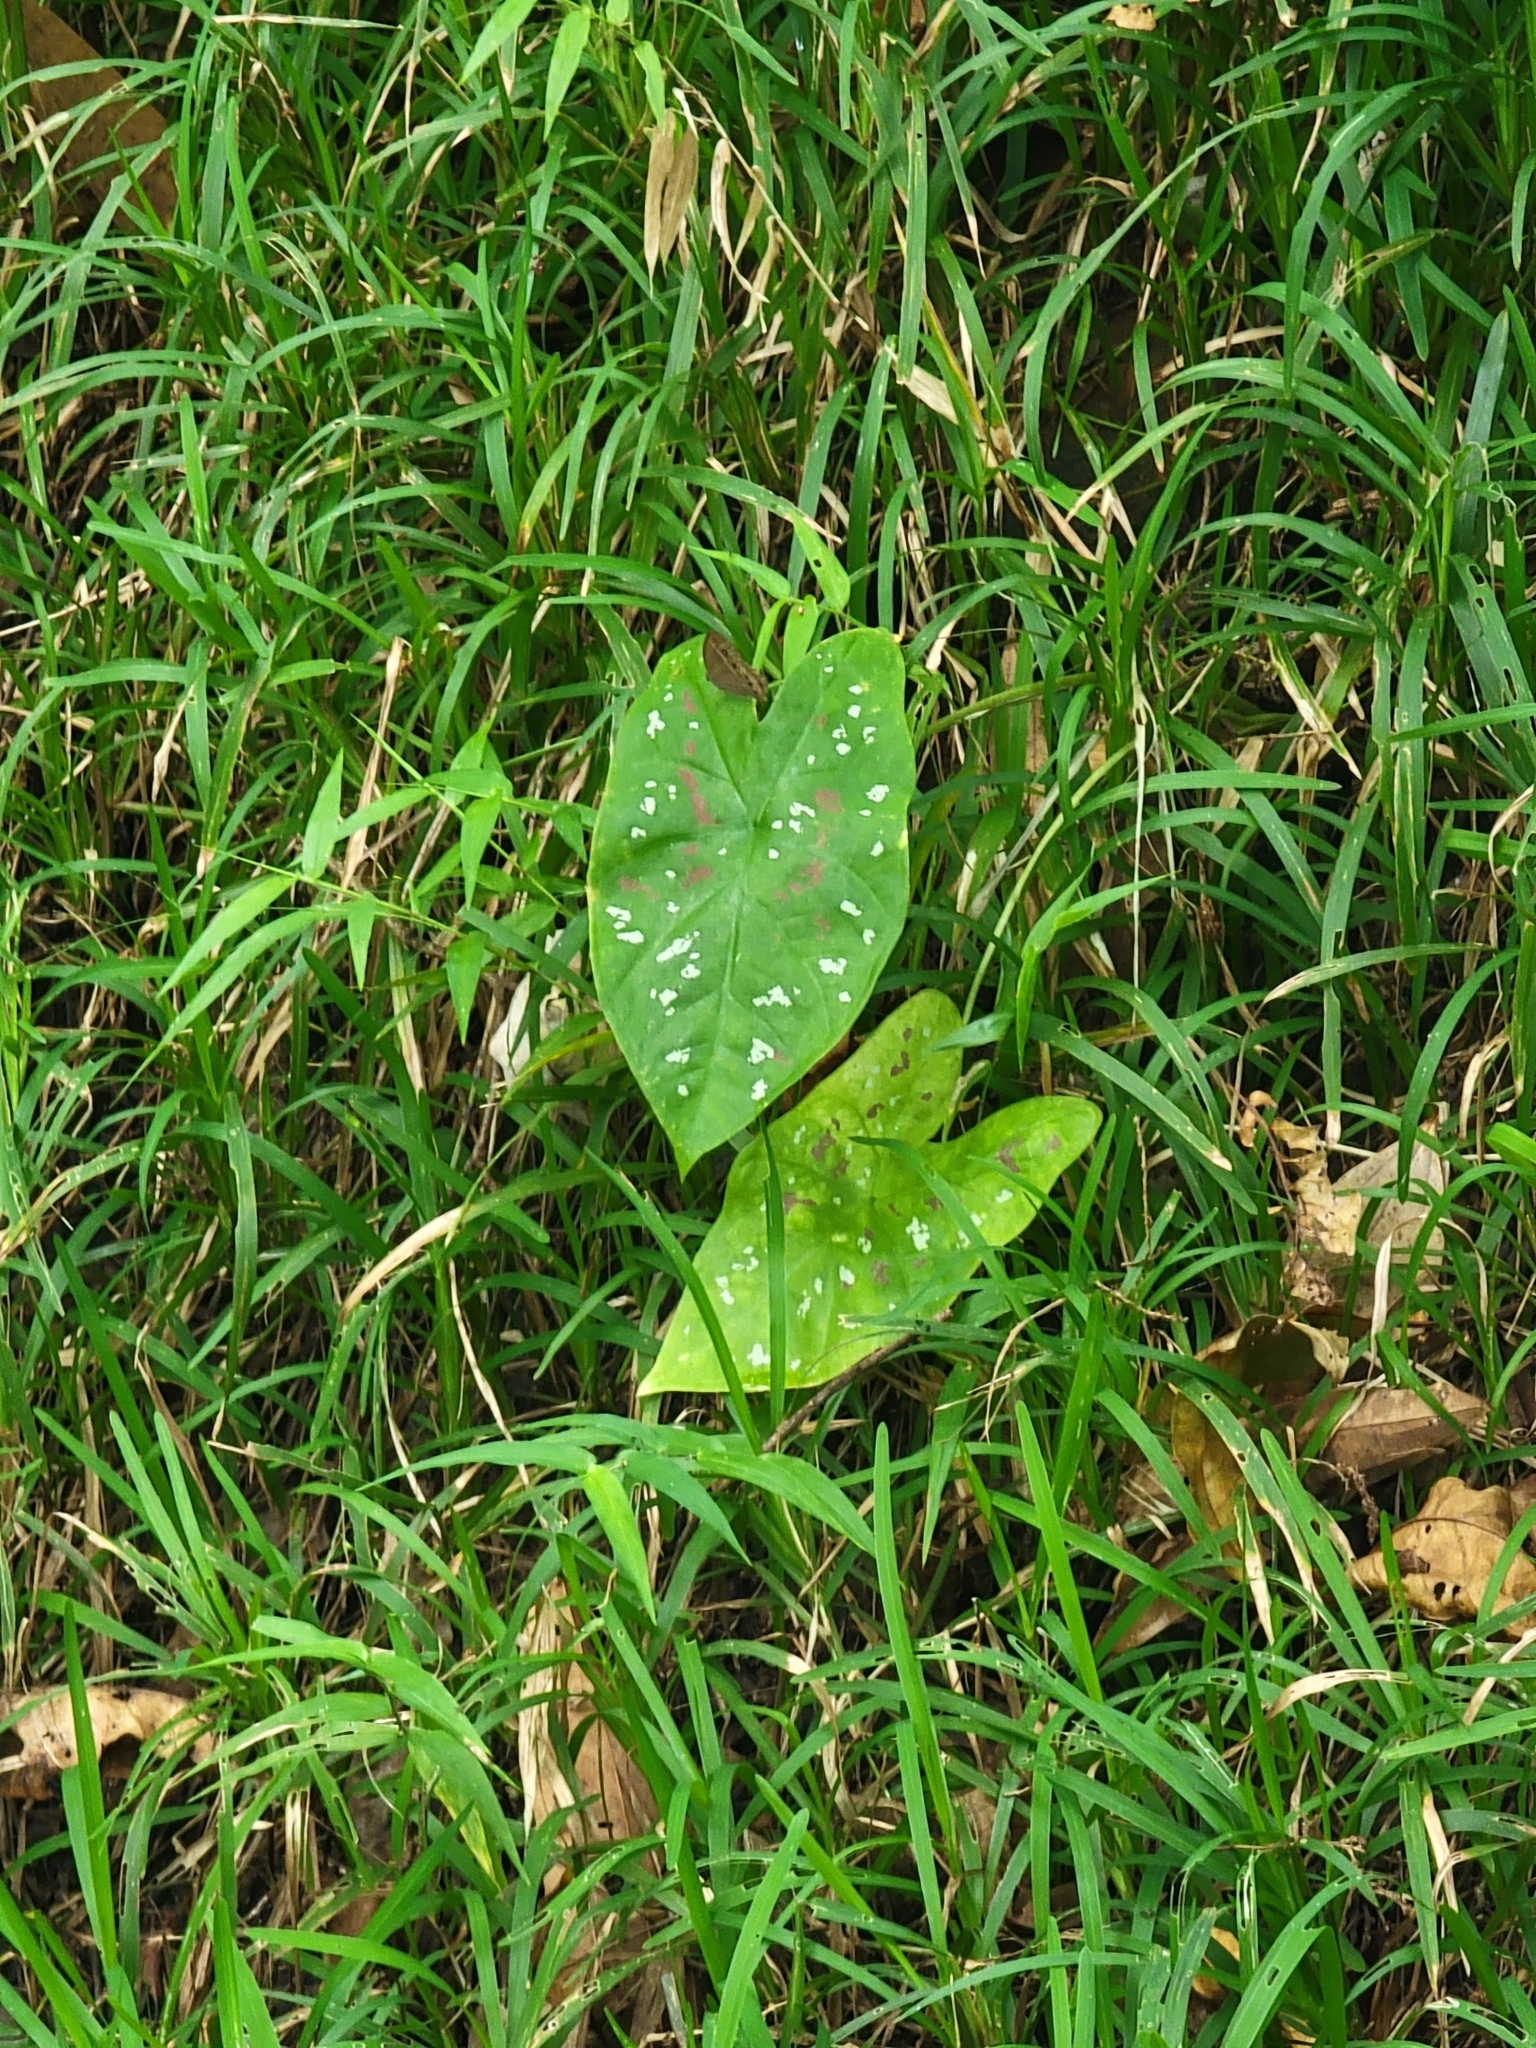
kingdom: Plantae
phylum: Tracheophyta
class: Liliopsida
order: Alismatales
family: Araceae
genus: Caladium
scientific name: Caladium bicolor
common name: Artist's pallet
